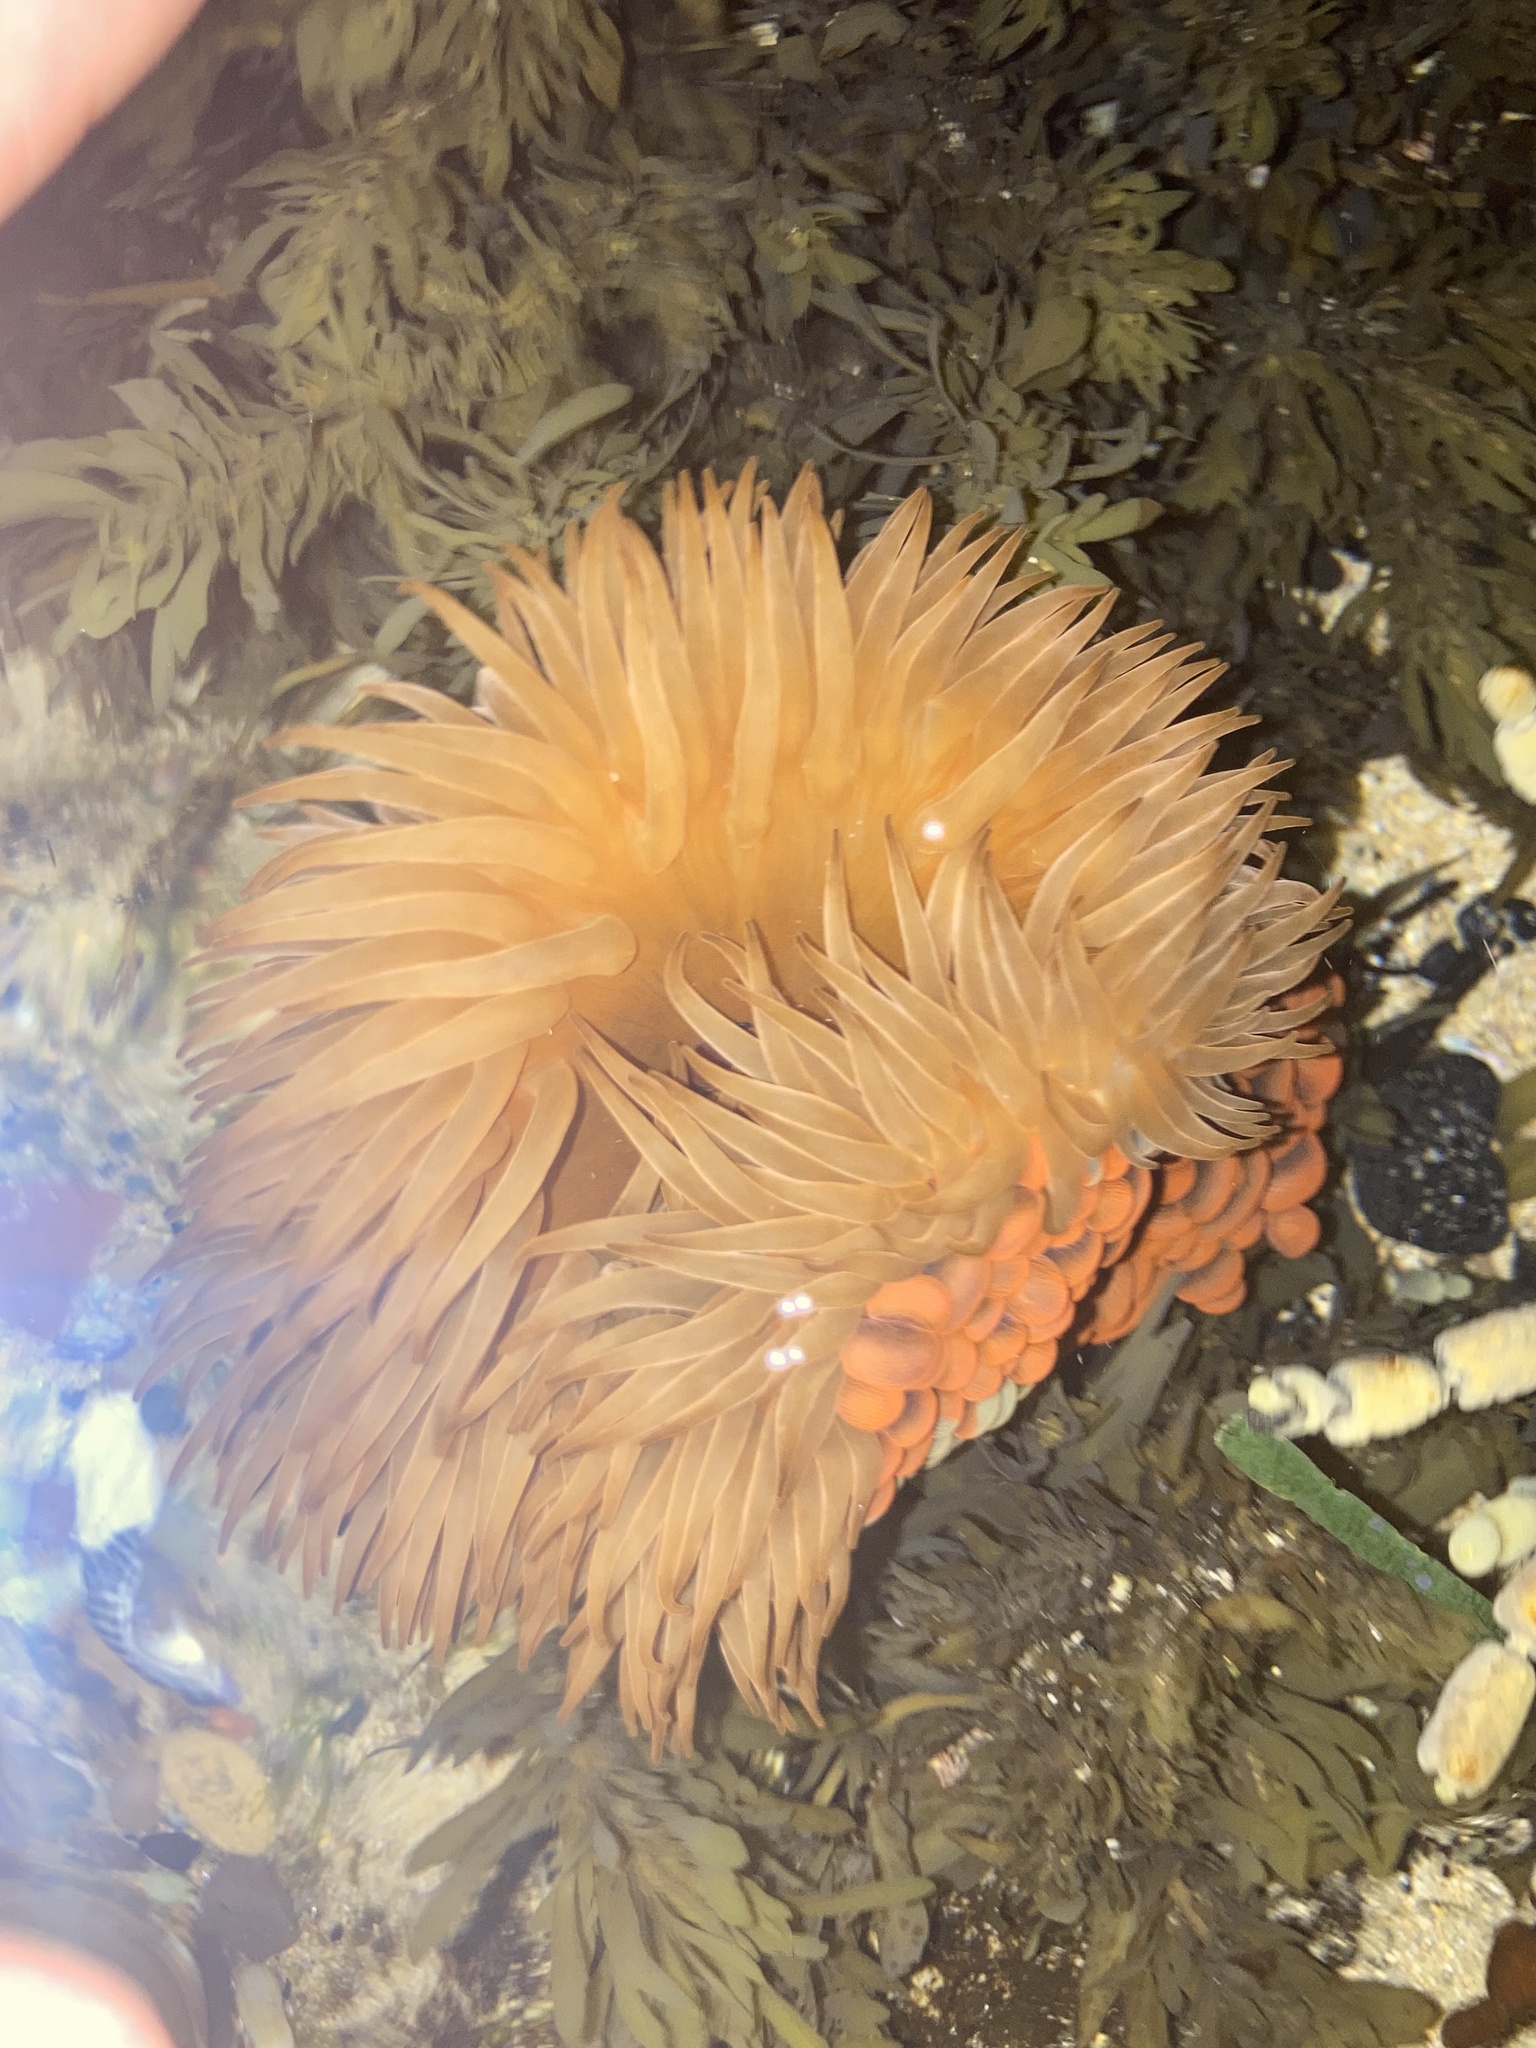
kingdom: Animalia
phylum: Cnidaria
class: Anthozoa
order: Actiniaria
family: Actiniidae
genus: Phlyctenactis
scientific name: Phlyctenactis tuberculosa
